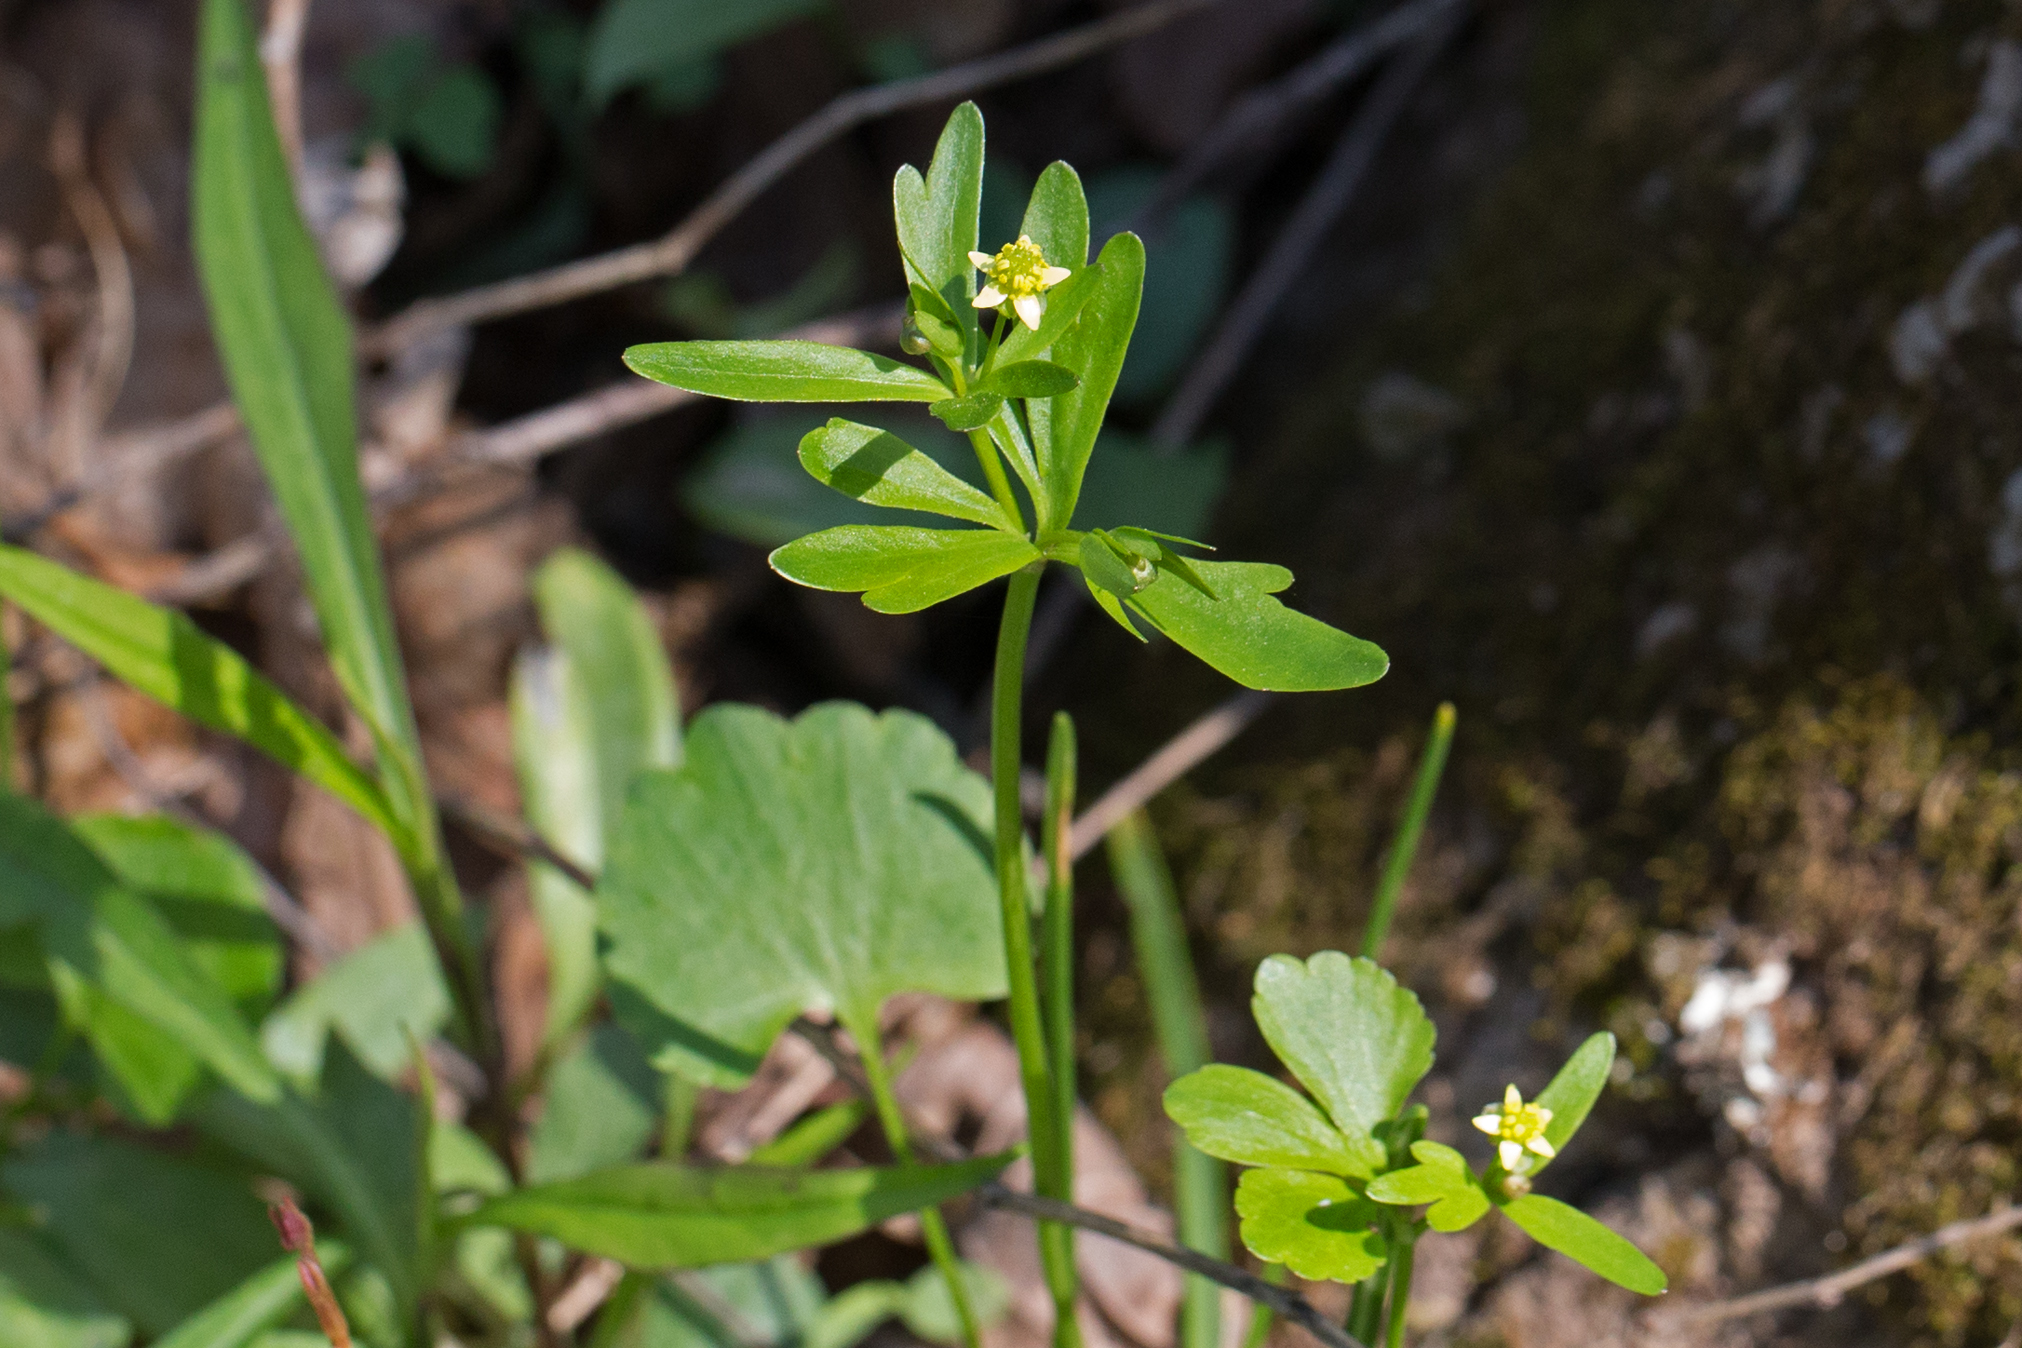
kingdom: Plantae
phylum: Tracheophyta
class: Magnoliopsida
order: Ranunculales
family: Ranunculaceae
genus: Ranunculus
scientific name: Ranunculus abortivus
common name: Early wood buttercup
